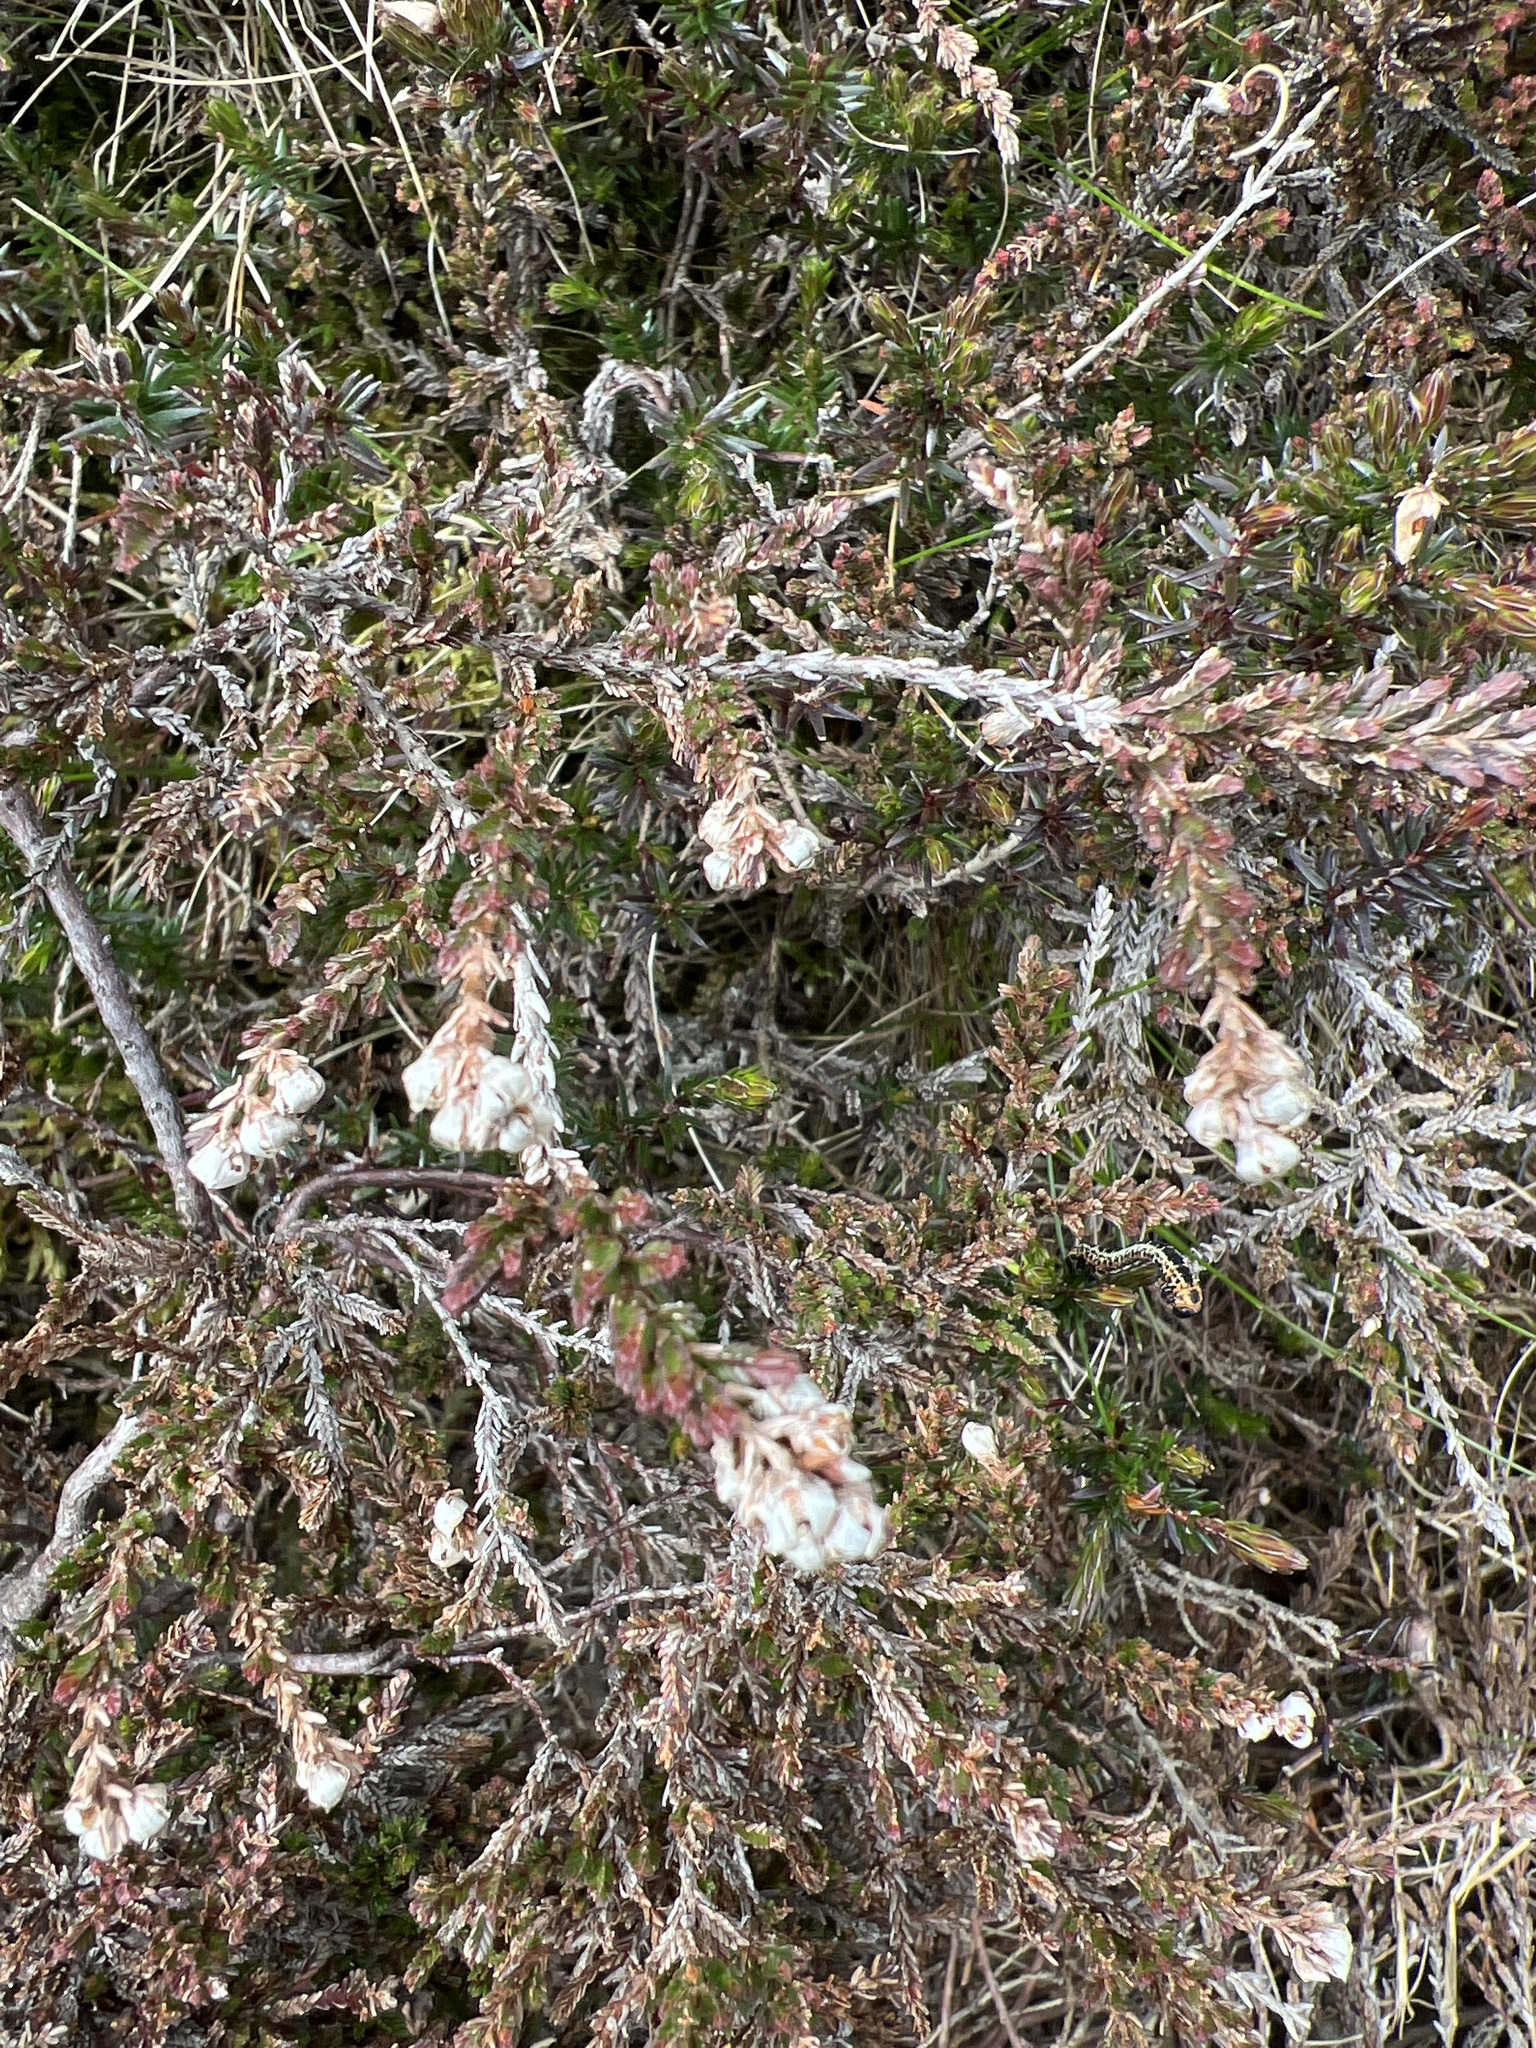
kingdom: Plantae
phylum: Tracheophyta
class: Magnoliopsida
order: Ericales
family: Ericaceae
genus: Calluna
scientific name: Calluna vulgaris
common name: Heather
